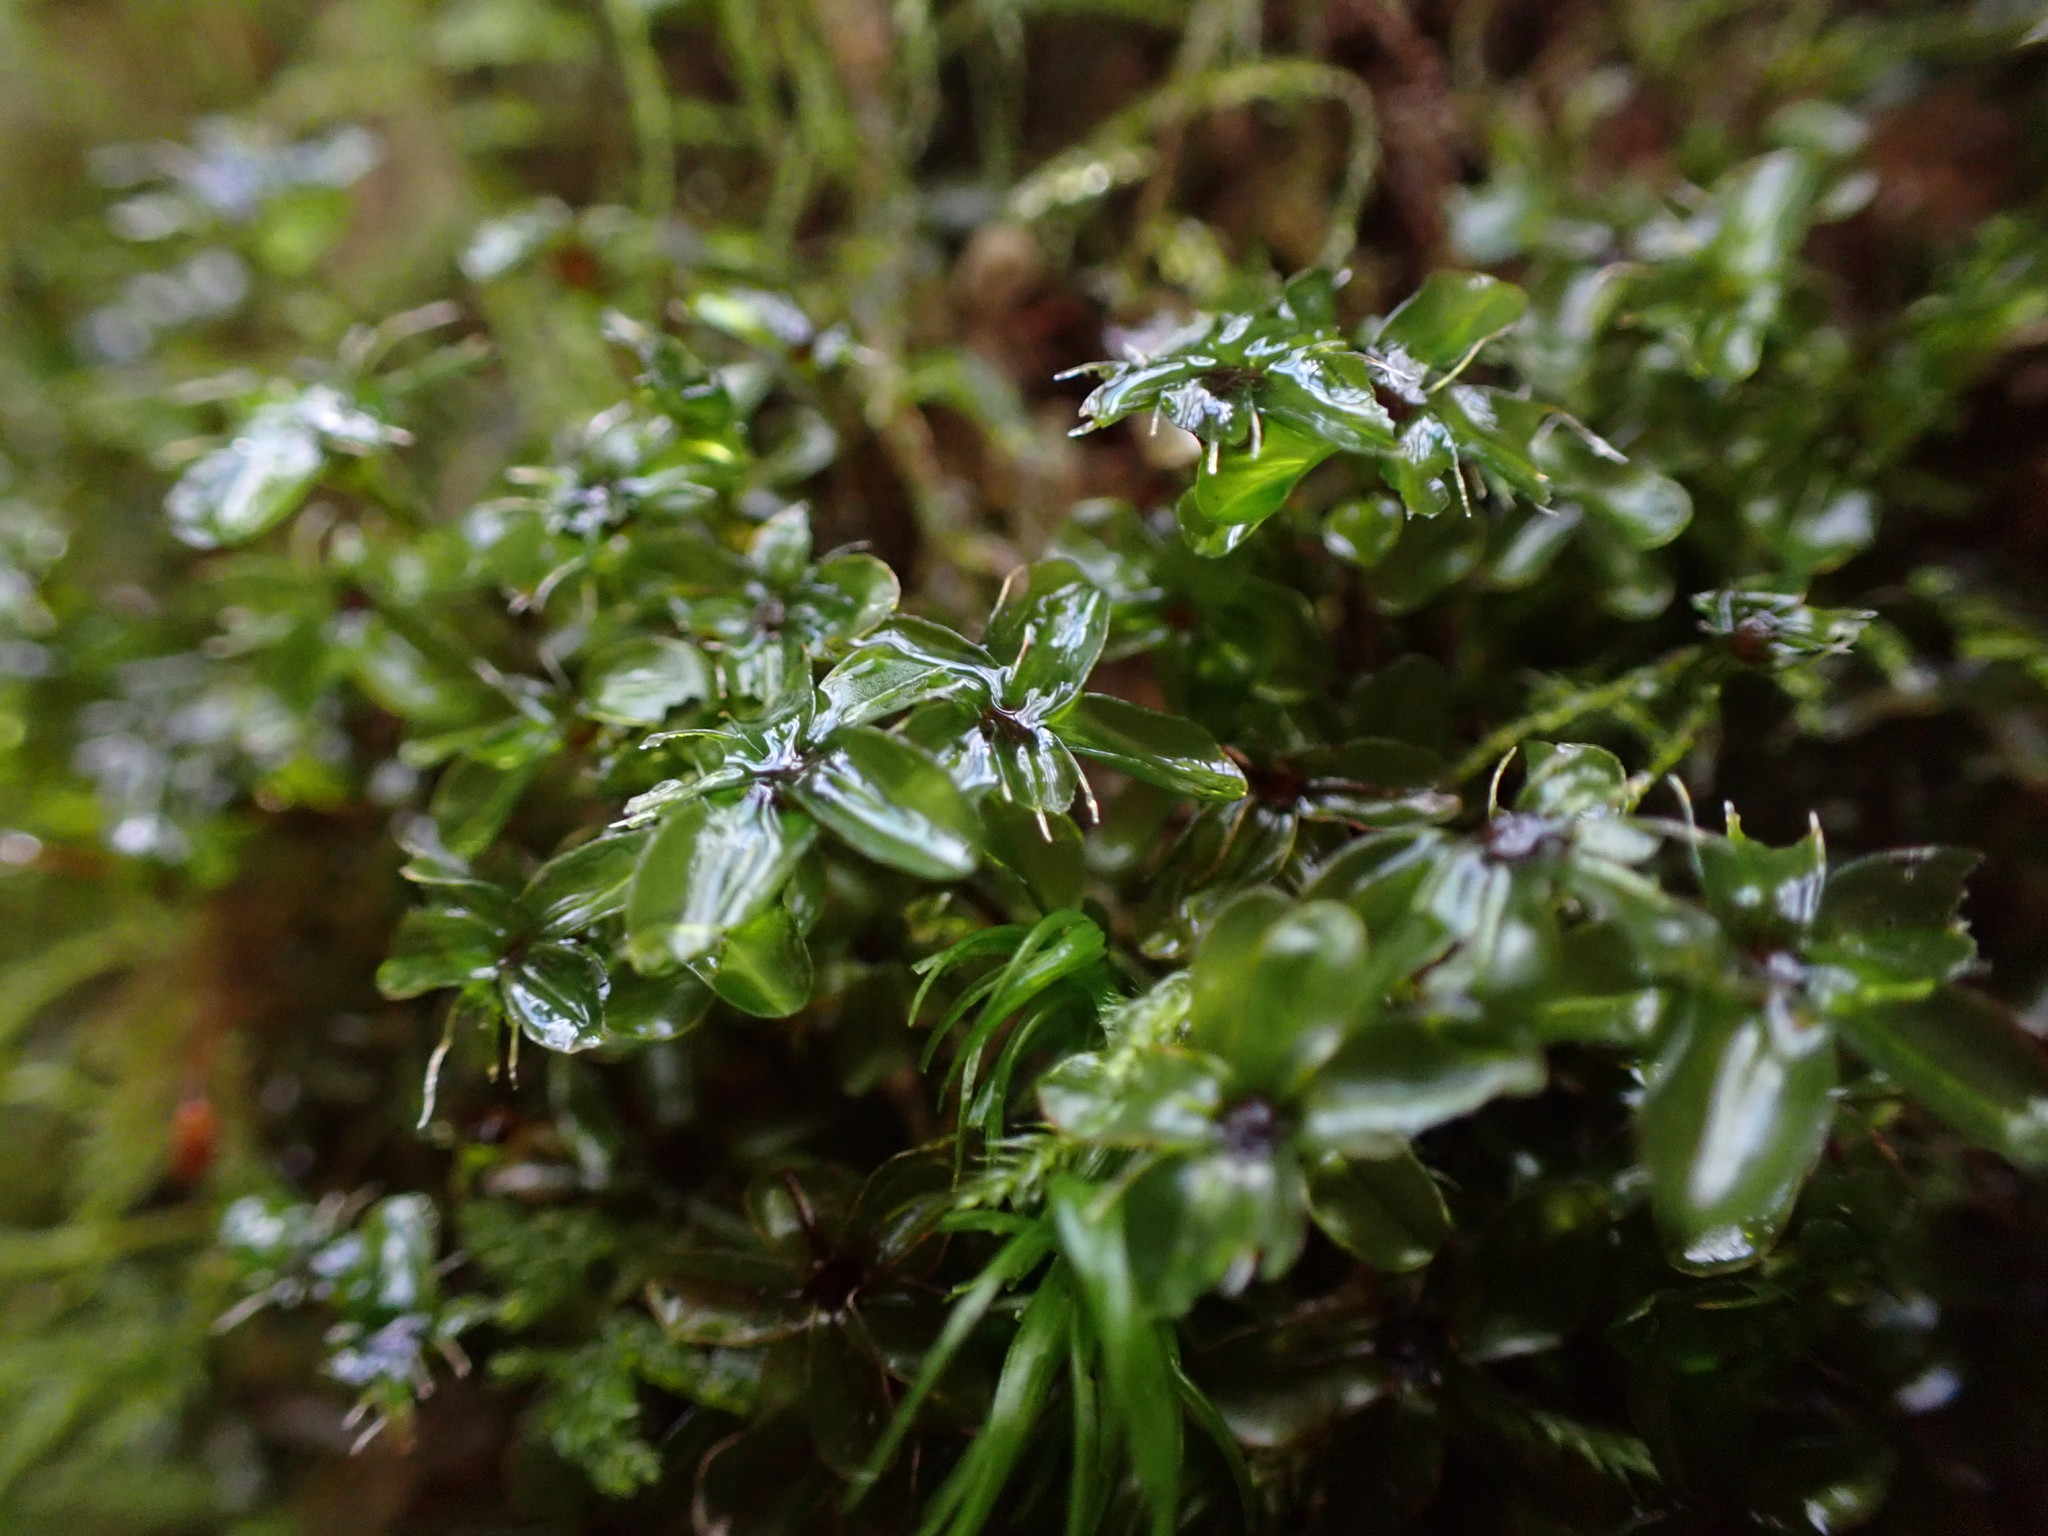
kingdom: Plantae
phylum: Bryophyta
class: Bryopsida
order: Bryales
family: Mniaceae
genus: Rhizomnium
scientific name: Rhizomnium glabrescens
